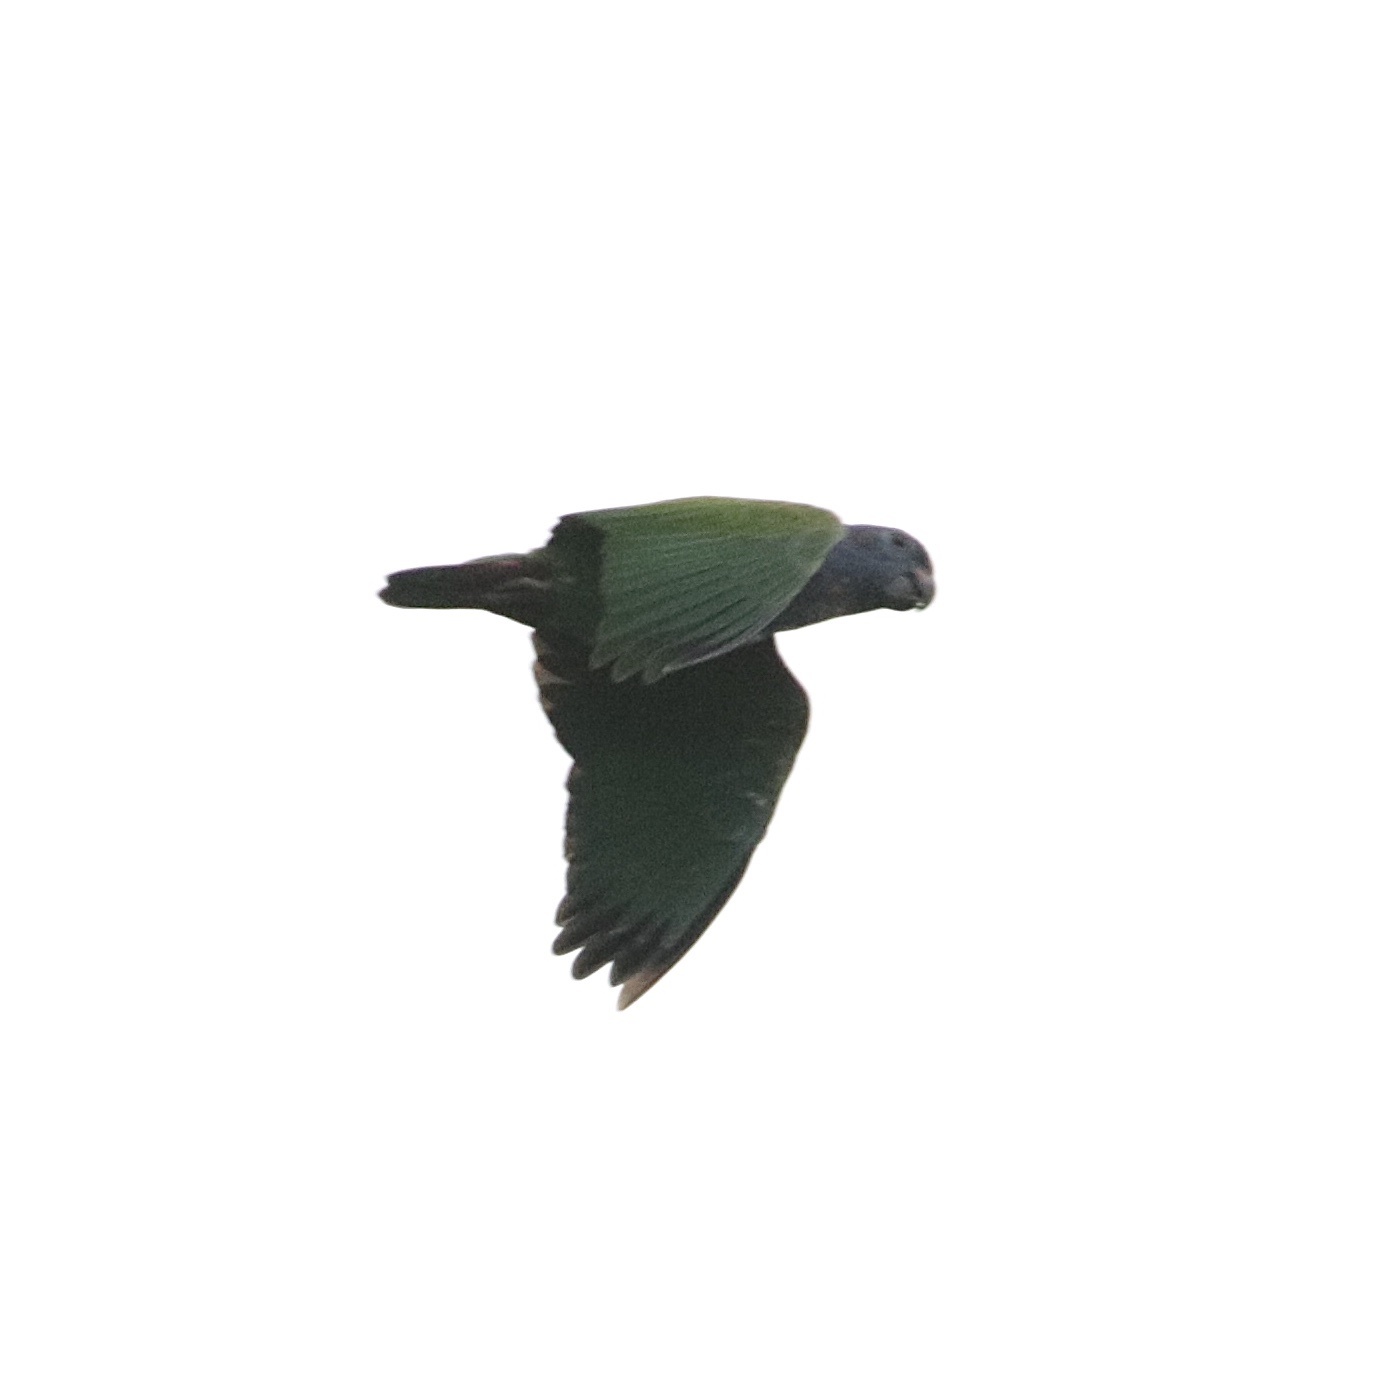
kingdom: Animalia
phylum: Chordata
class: Aves
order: Psittaciformes
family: Psittacidae
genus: Pionus
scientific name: Pionus menstruus
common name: Blue-headed parrot
